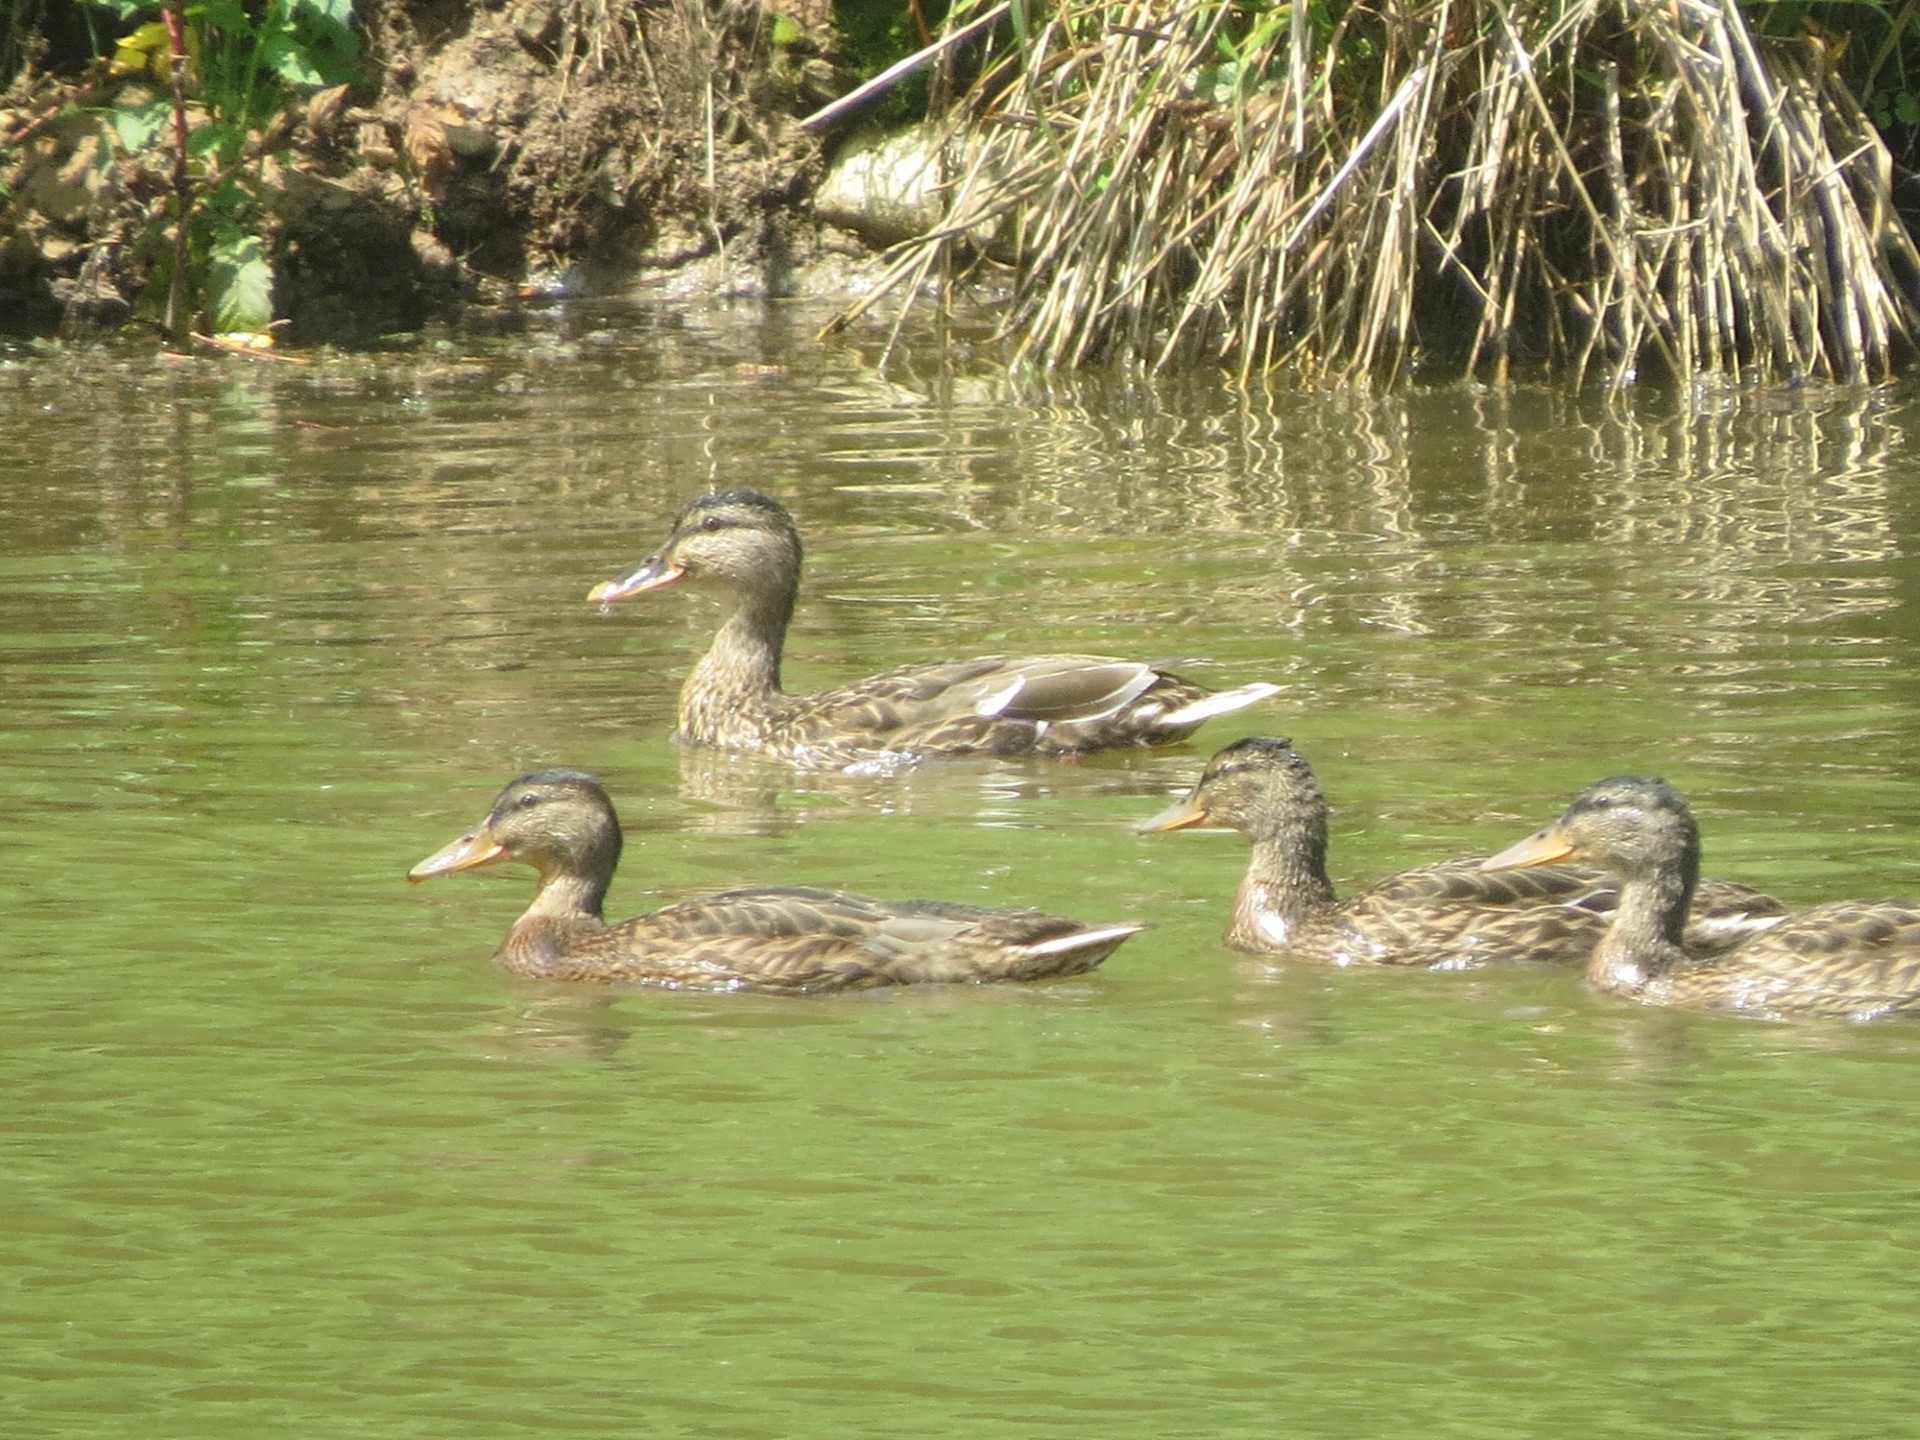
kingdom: Animalia
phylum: Chordata
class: Aves
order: Anseriformes
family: Anatidae
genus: Anas
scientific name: Anas platyrhynchos
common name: Mallard
